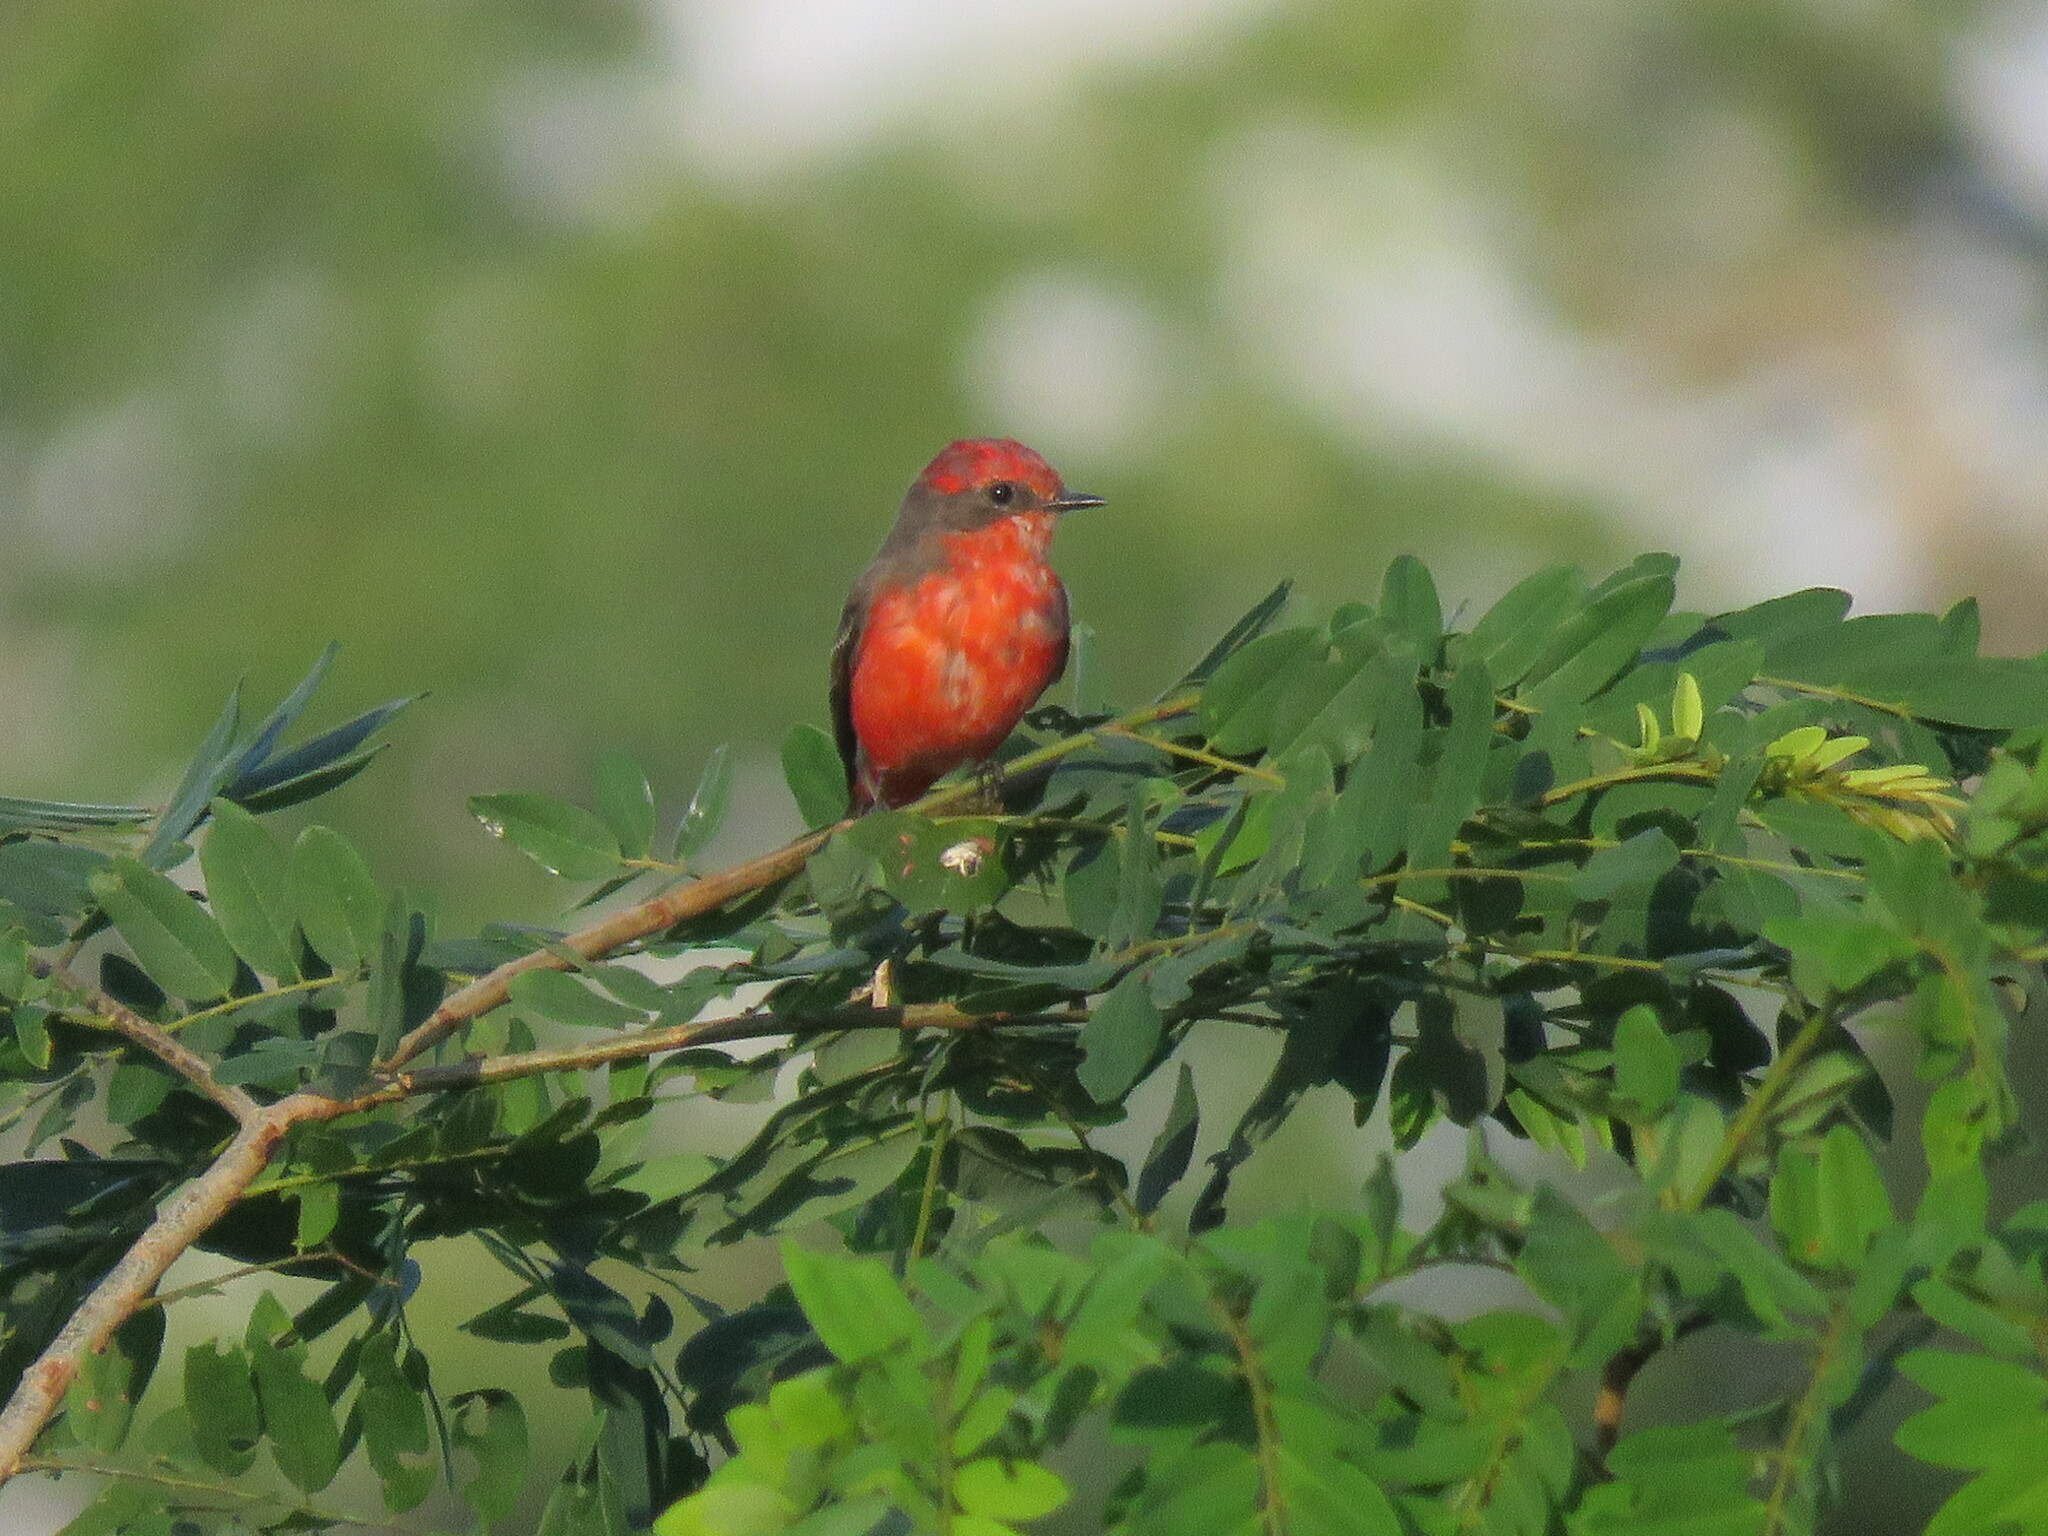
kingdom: Animalia
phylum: Chordata
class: Aves
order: Passeriformes
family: Tyrannidae
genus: Pyrocephalus
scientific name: Pyrocephalus rubinus
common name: Vermilion flycatcher
